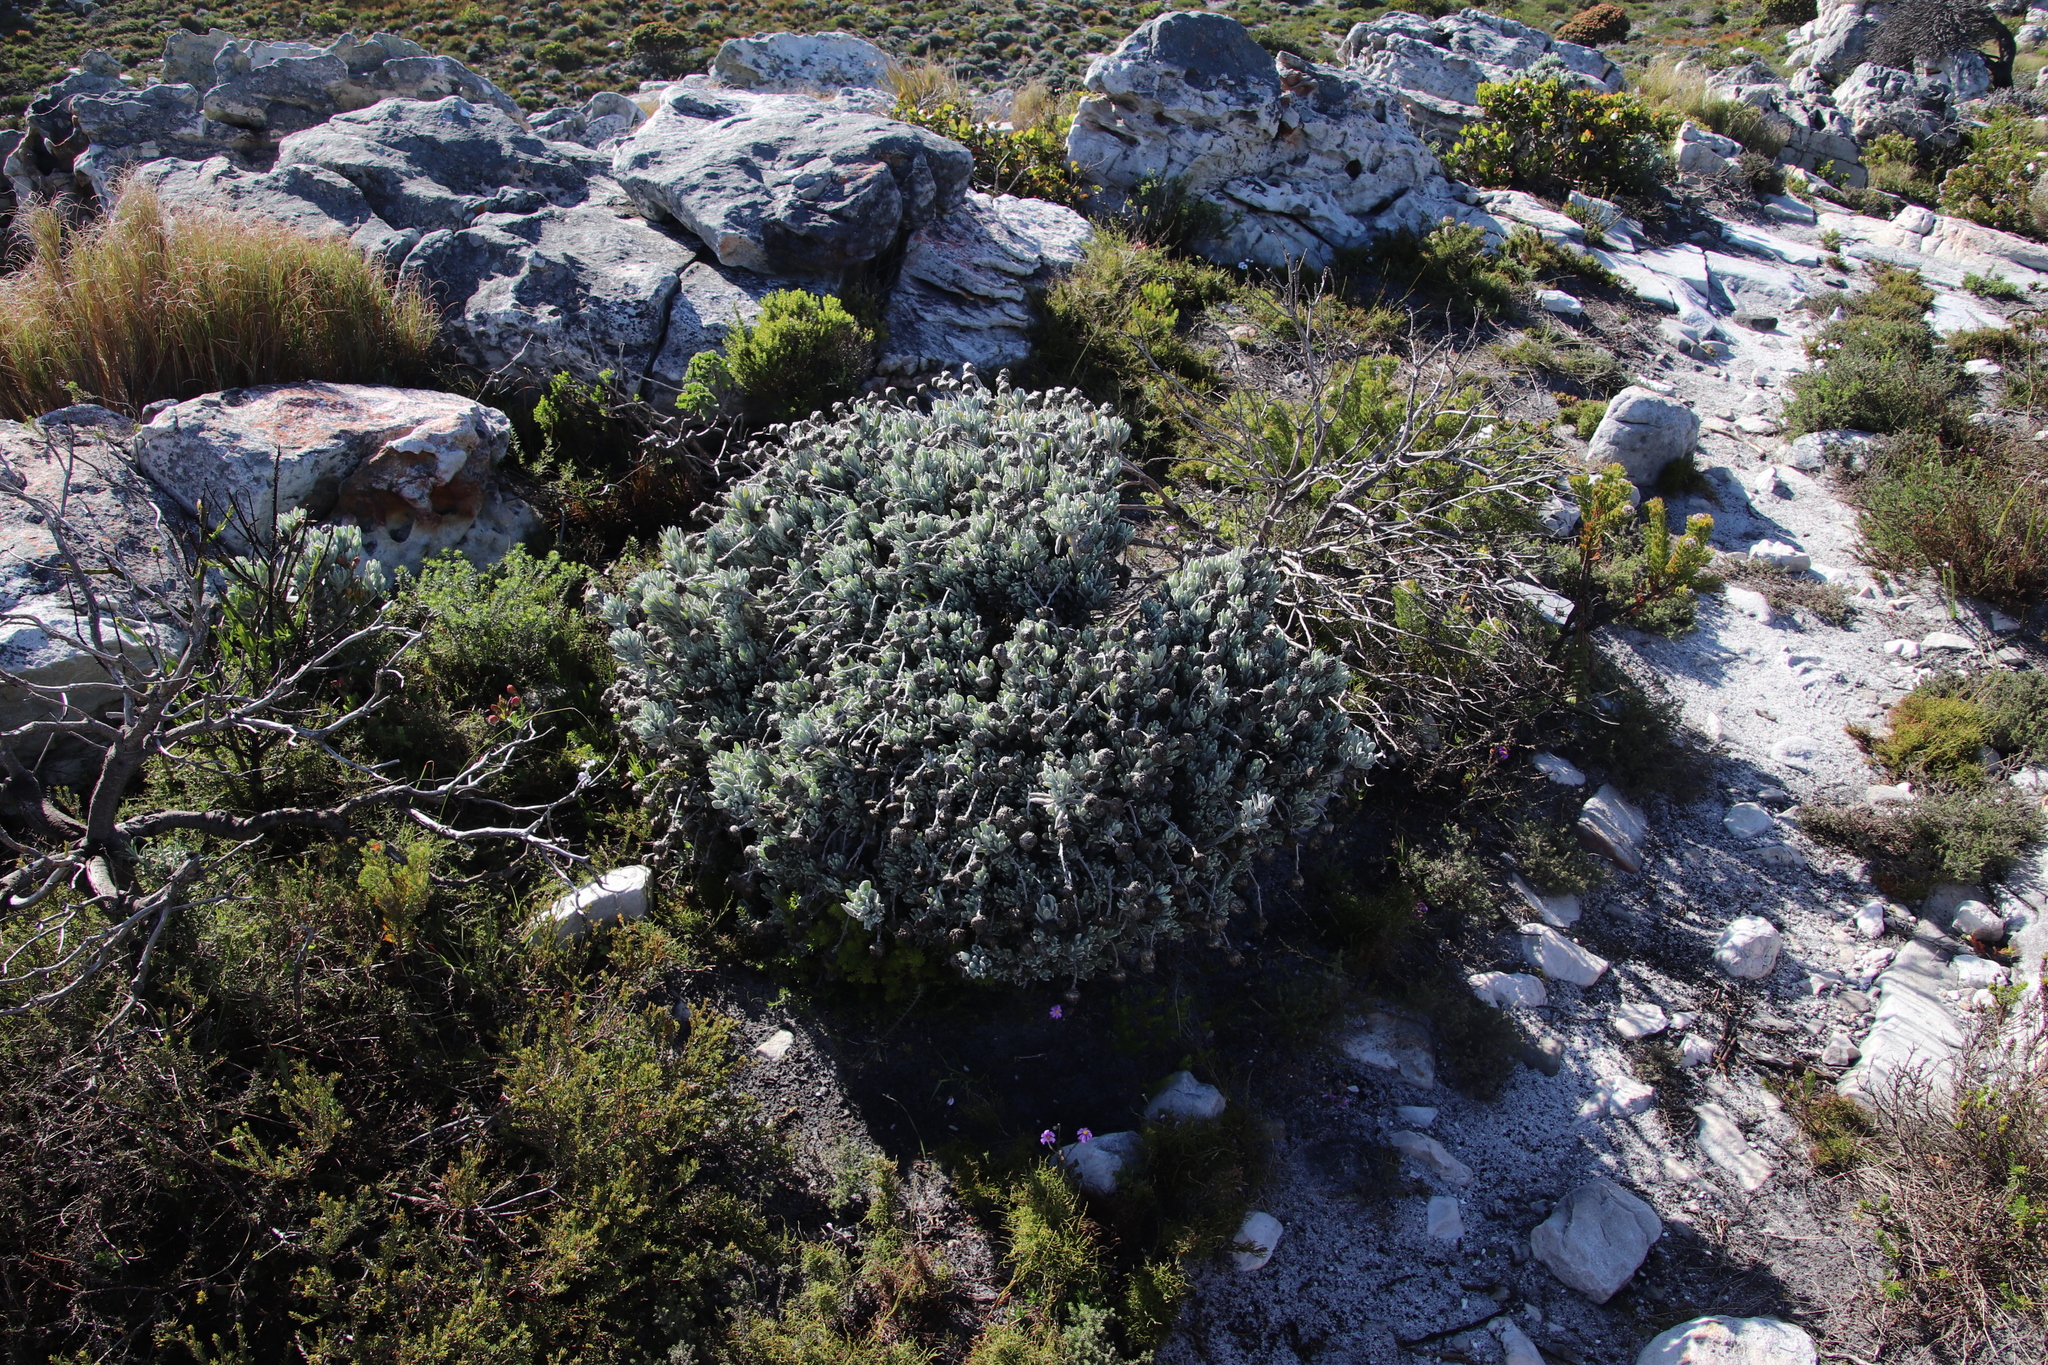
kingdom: Plantae
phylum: Tracheophyta
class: Magnoliopsida
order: Asterales
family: Asteraceae
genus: Syncarpha
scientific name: Syncarpha vestita
